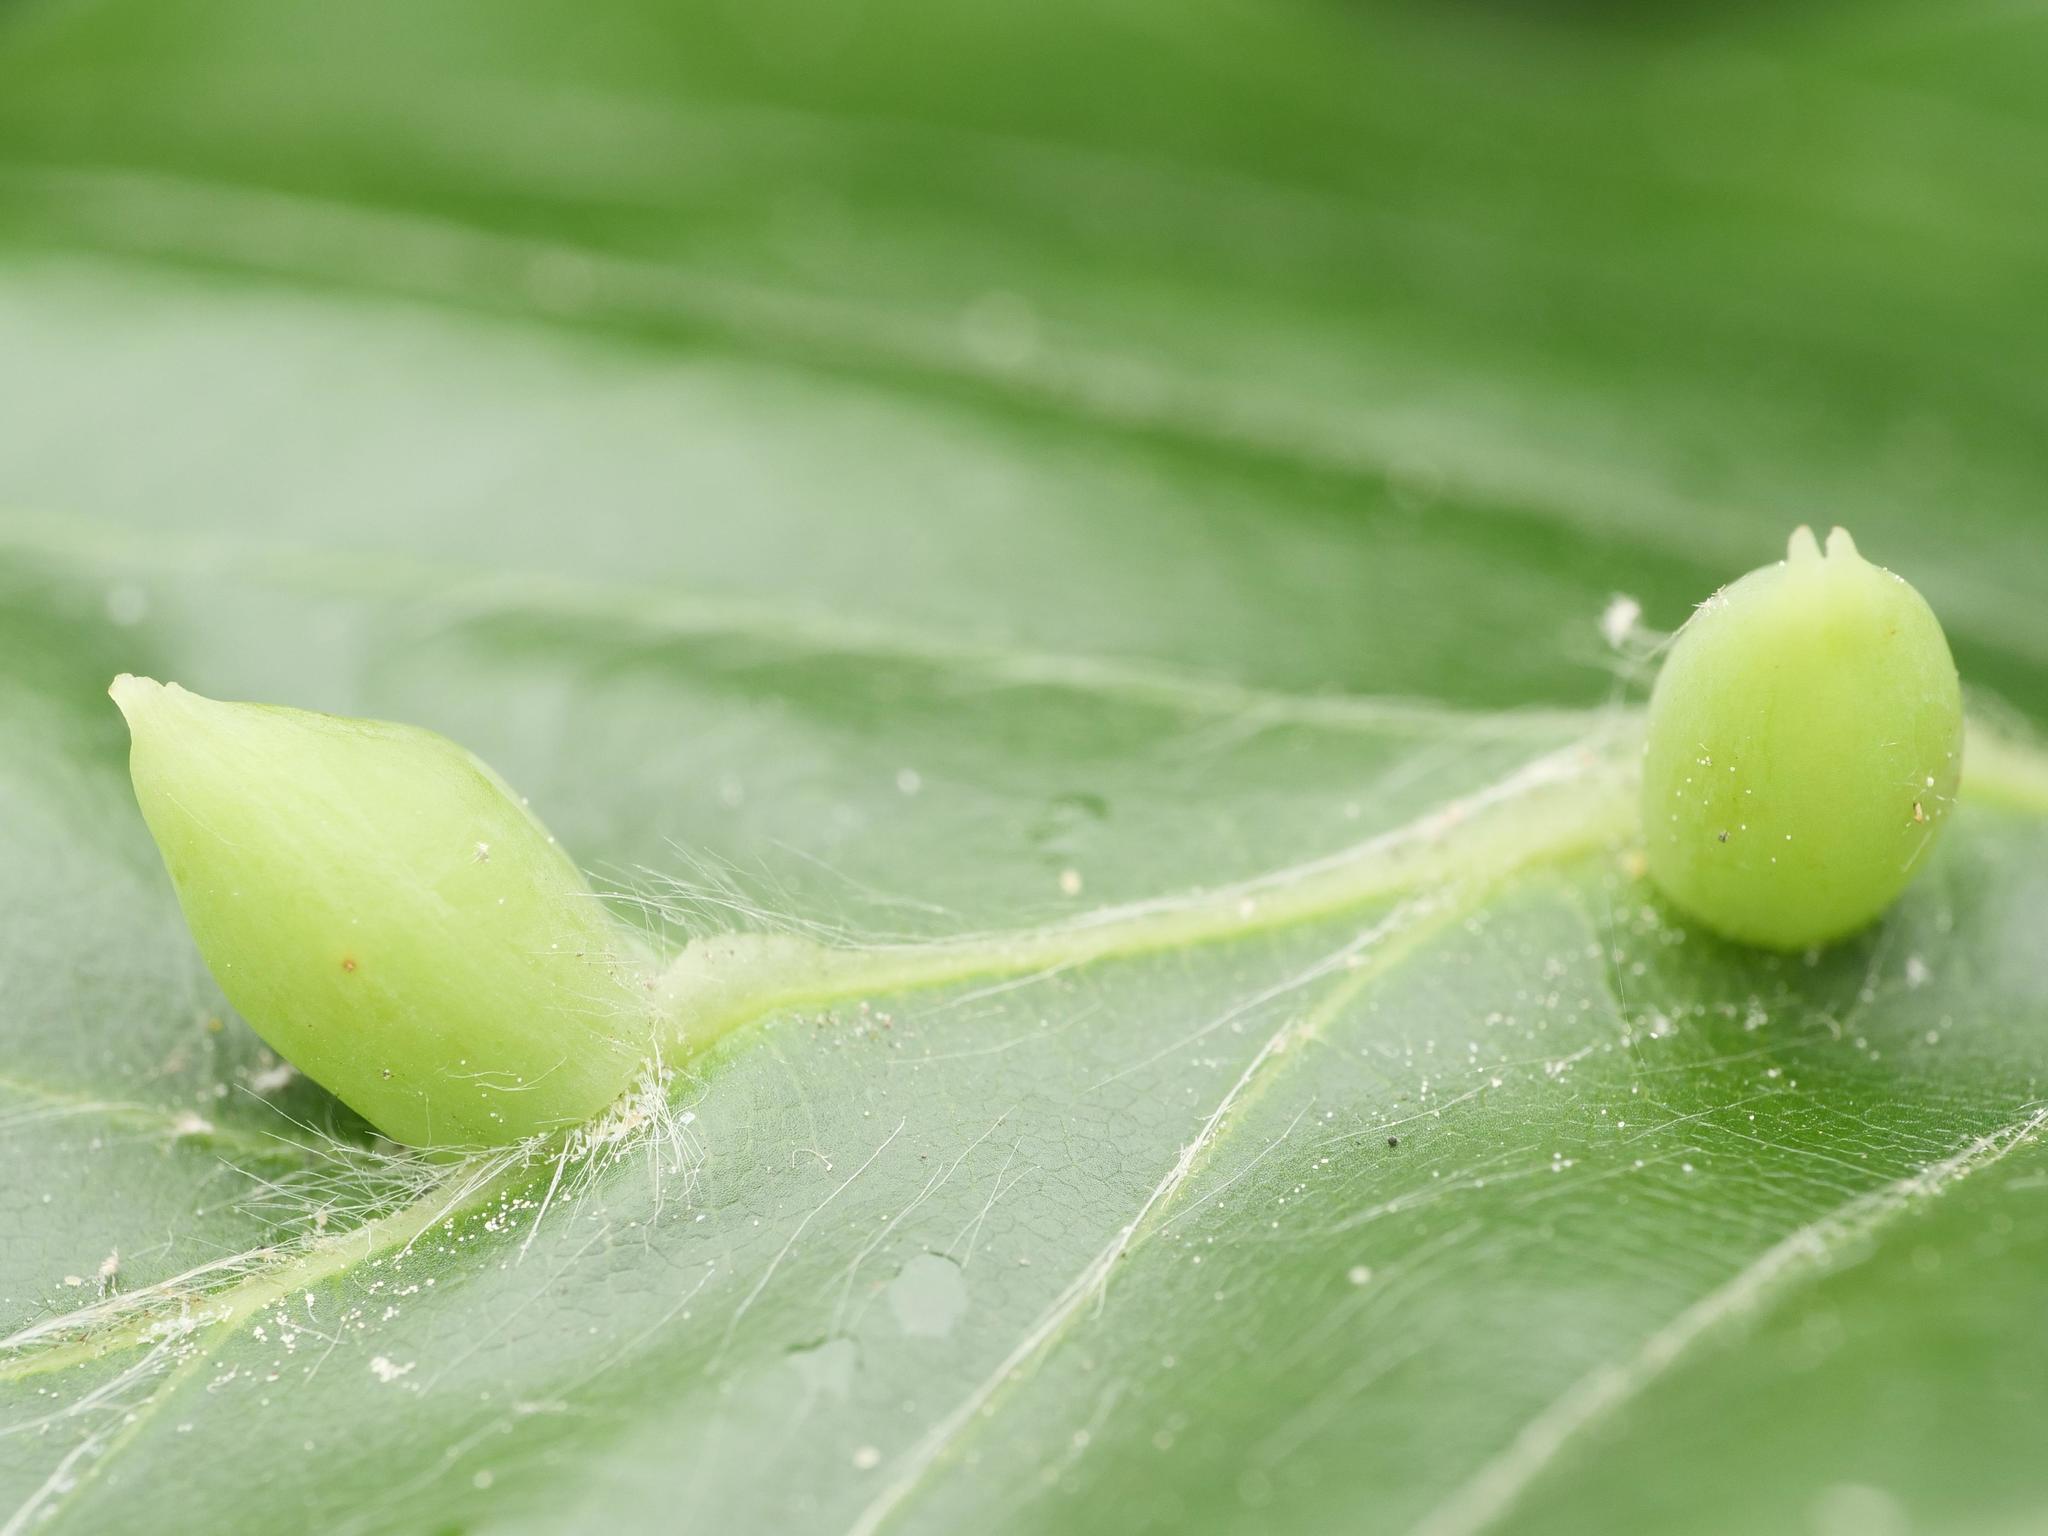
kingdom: Animalia
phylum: Arthropoda
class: Insecta
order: Diptera
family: Cecidomyiidae
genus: Mikiola
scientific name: Mikiola fagi
